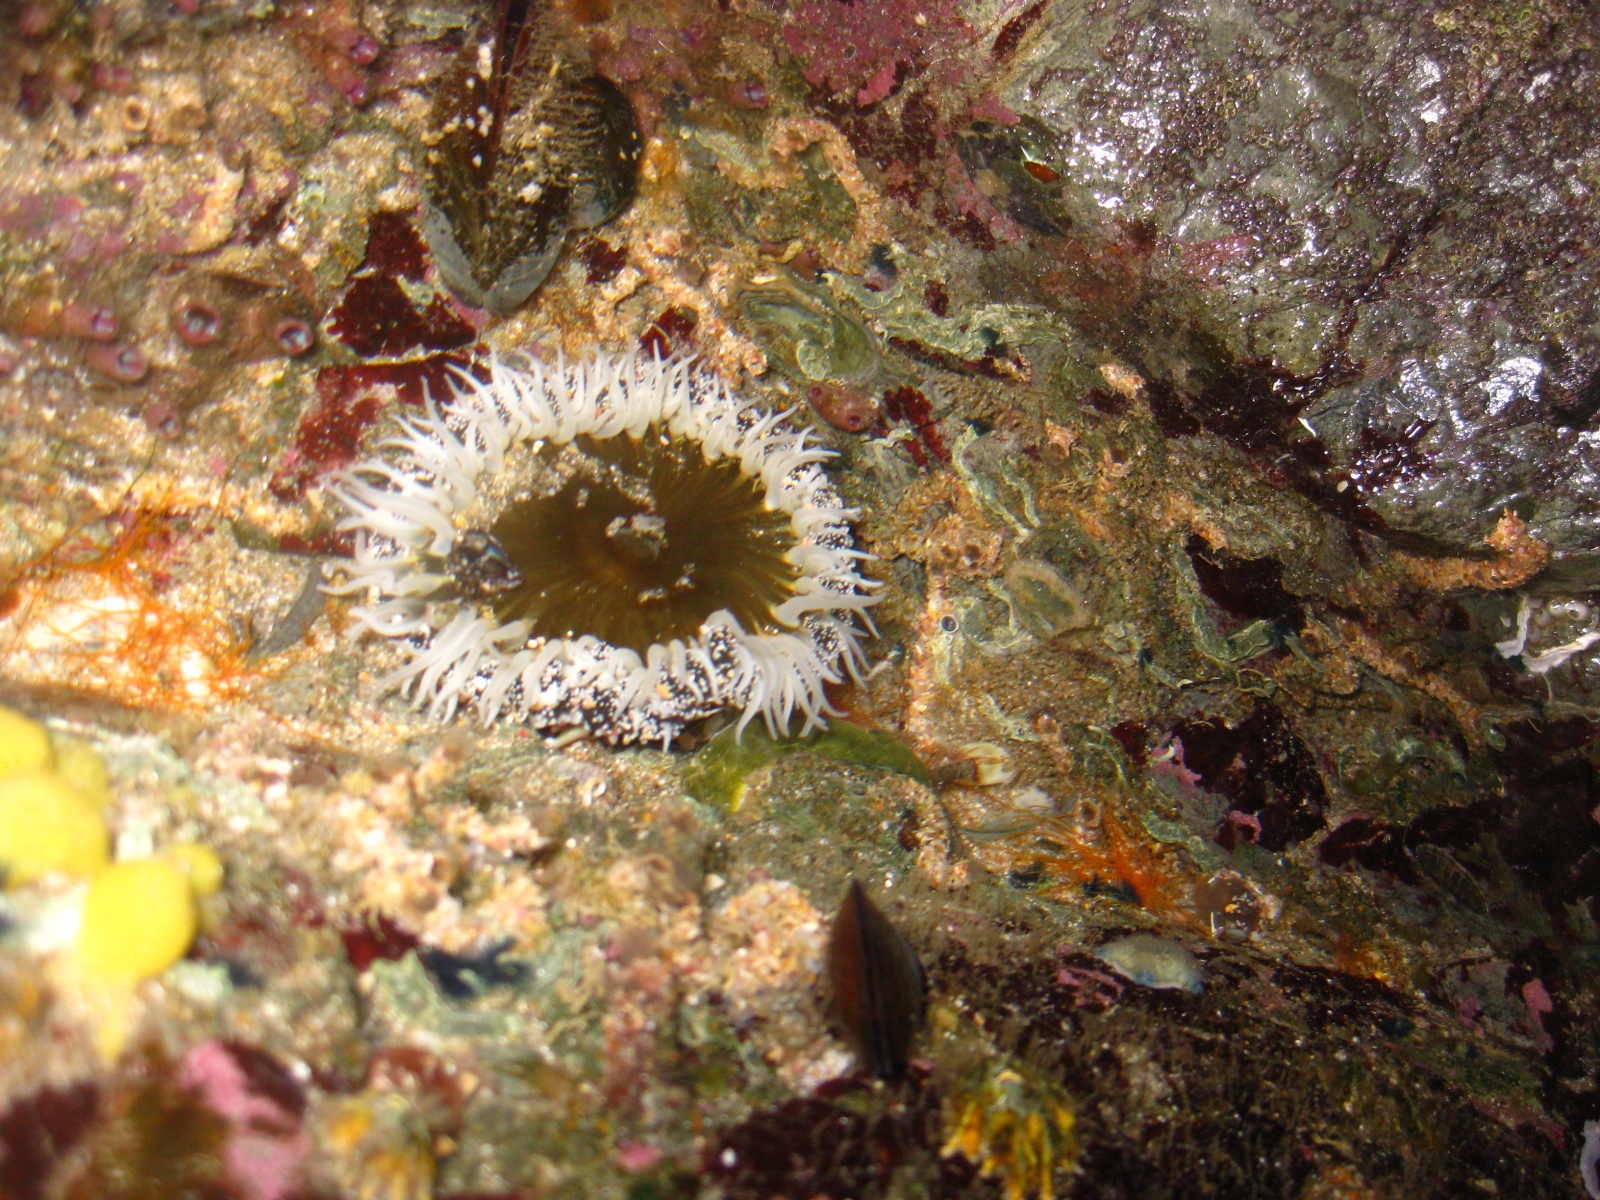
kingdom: Animalia
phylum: Cnidaria
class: Anthozoa
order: Actiniaria
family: Actiniidae
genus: Oulactis
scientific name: Oulactis magna
